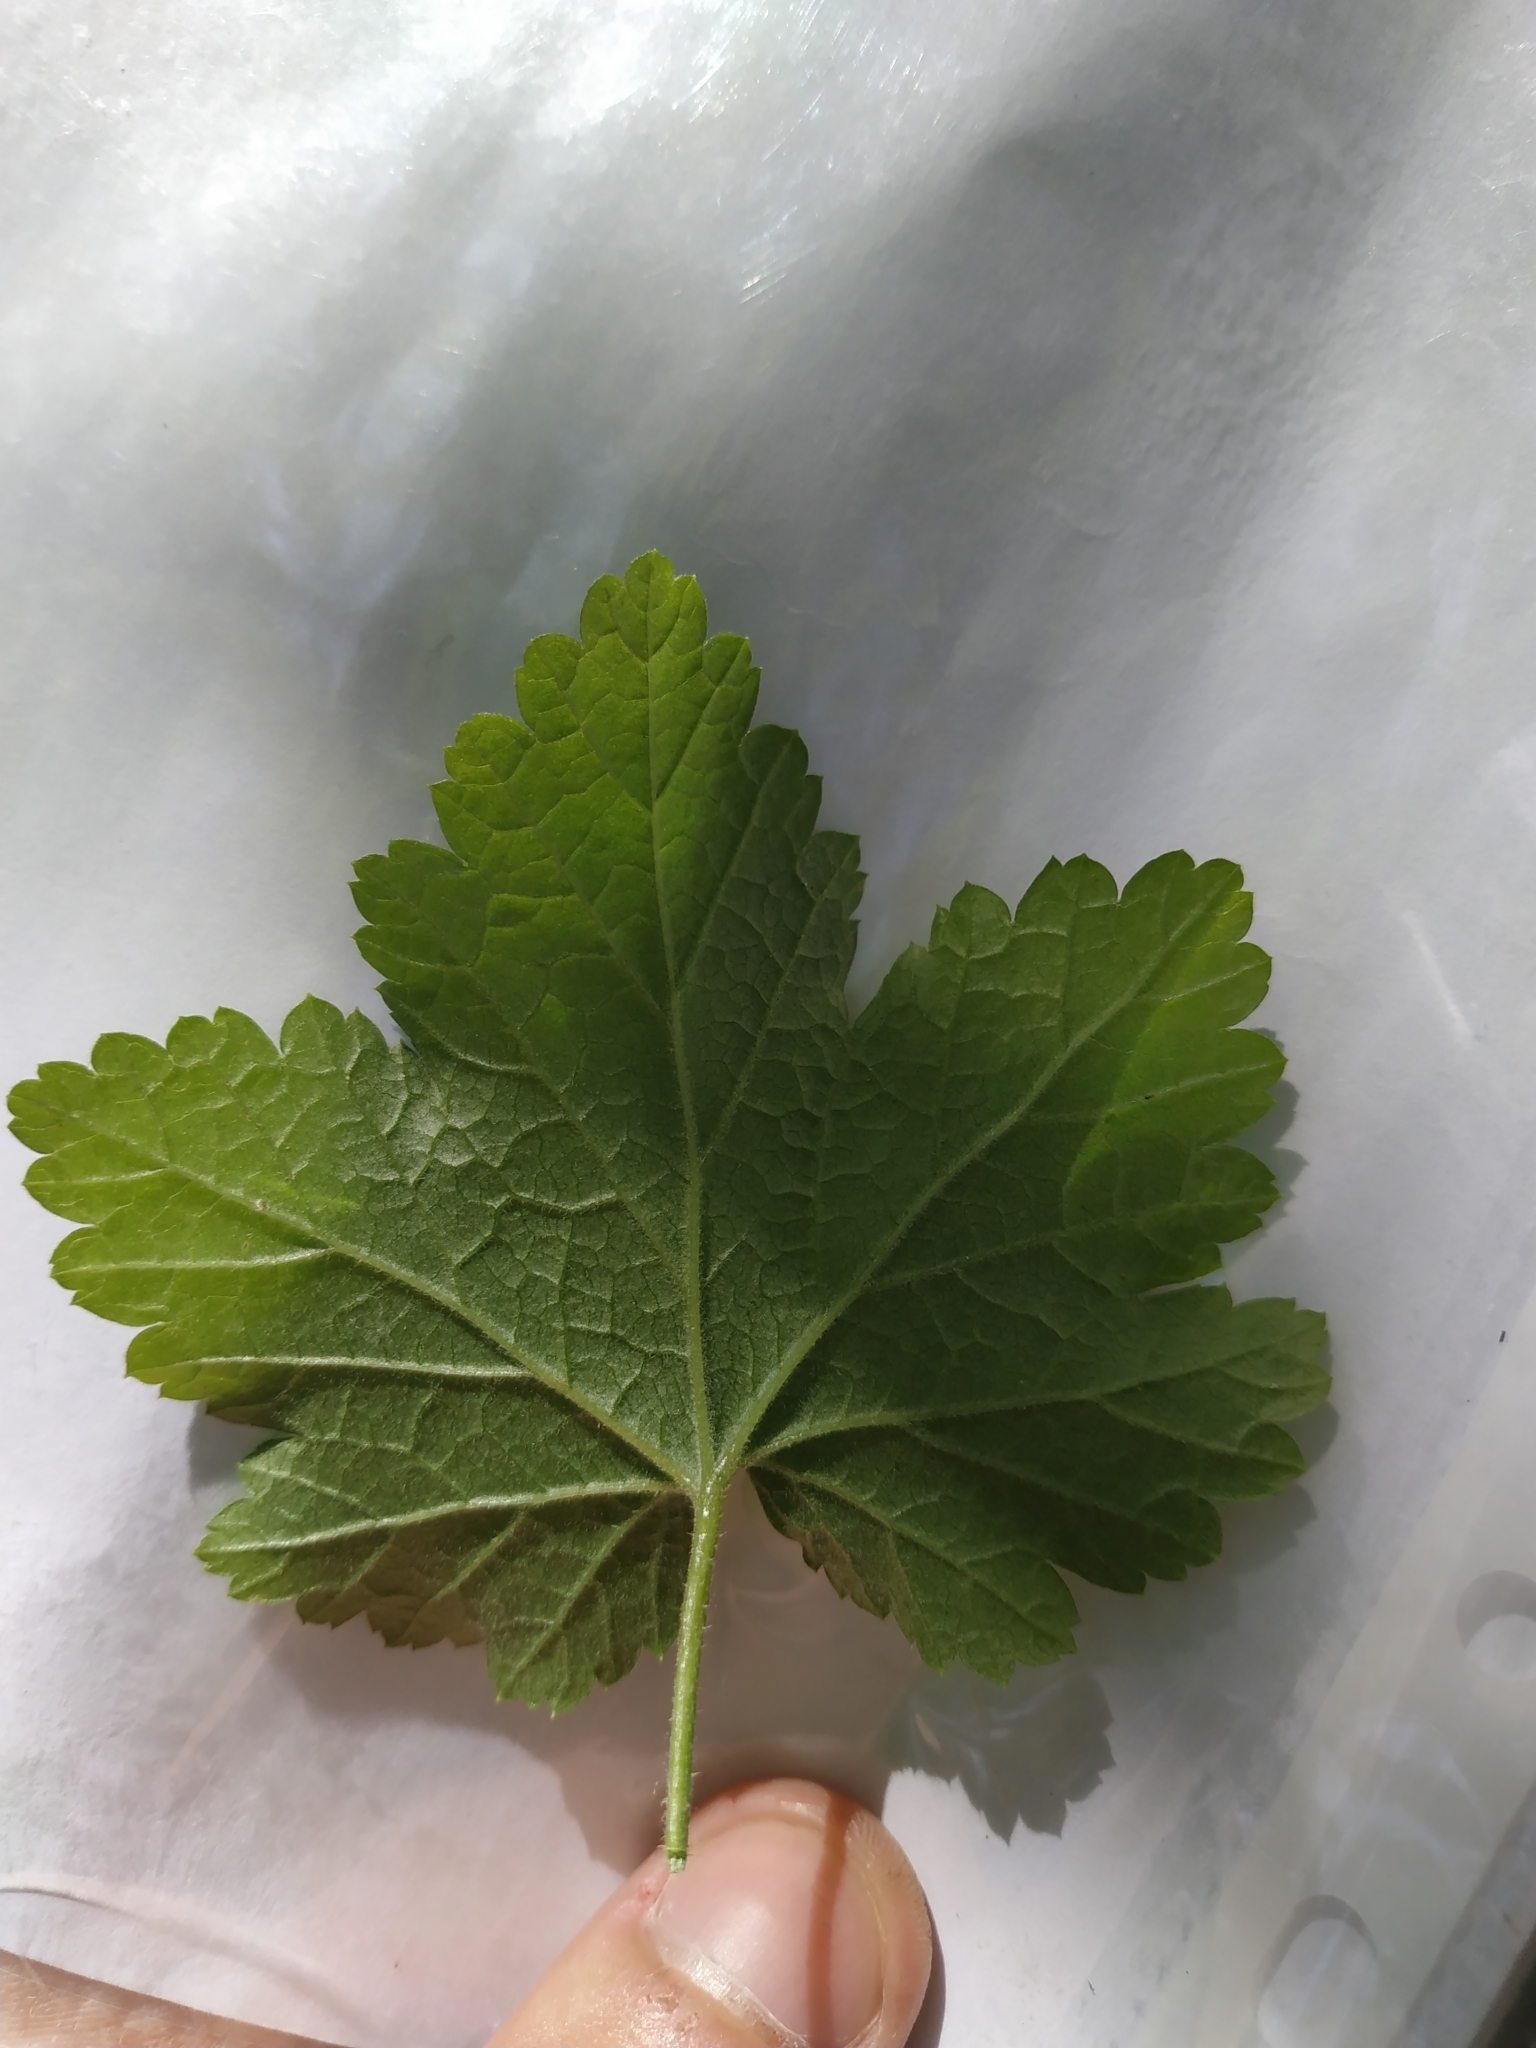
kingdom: Plantae
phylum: Tracheophyta
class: Magnoliopsida
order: Saxifragales
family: Grossulariaceae
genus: Ribes
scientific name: Ribes rubrum
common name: Red currant
